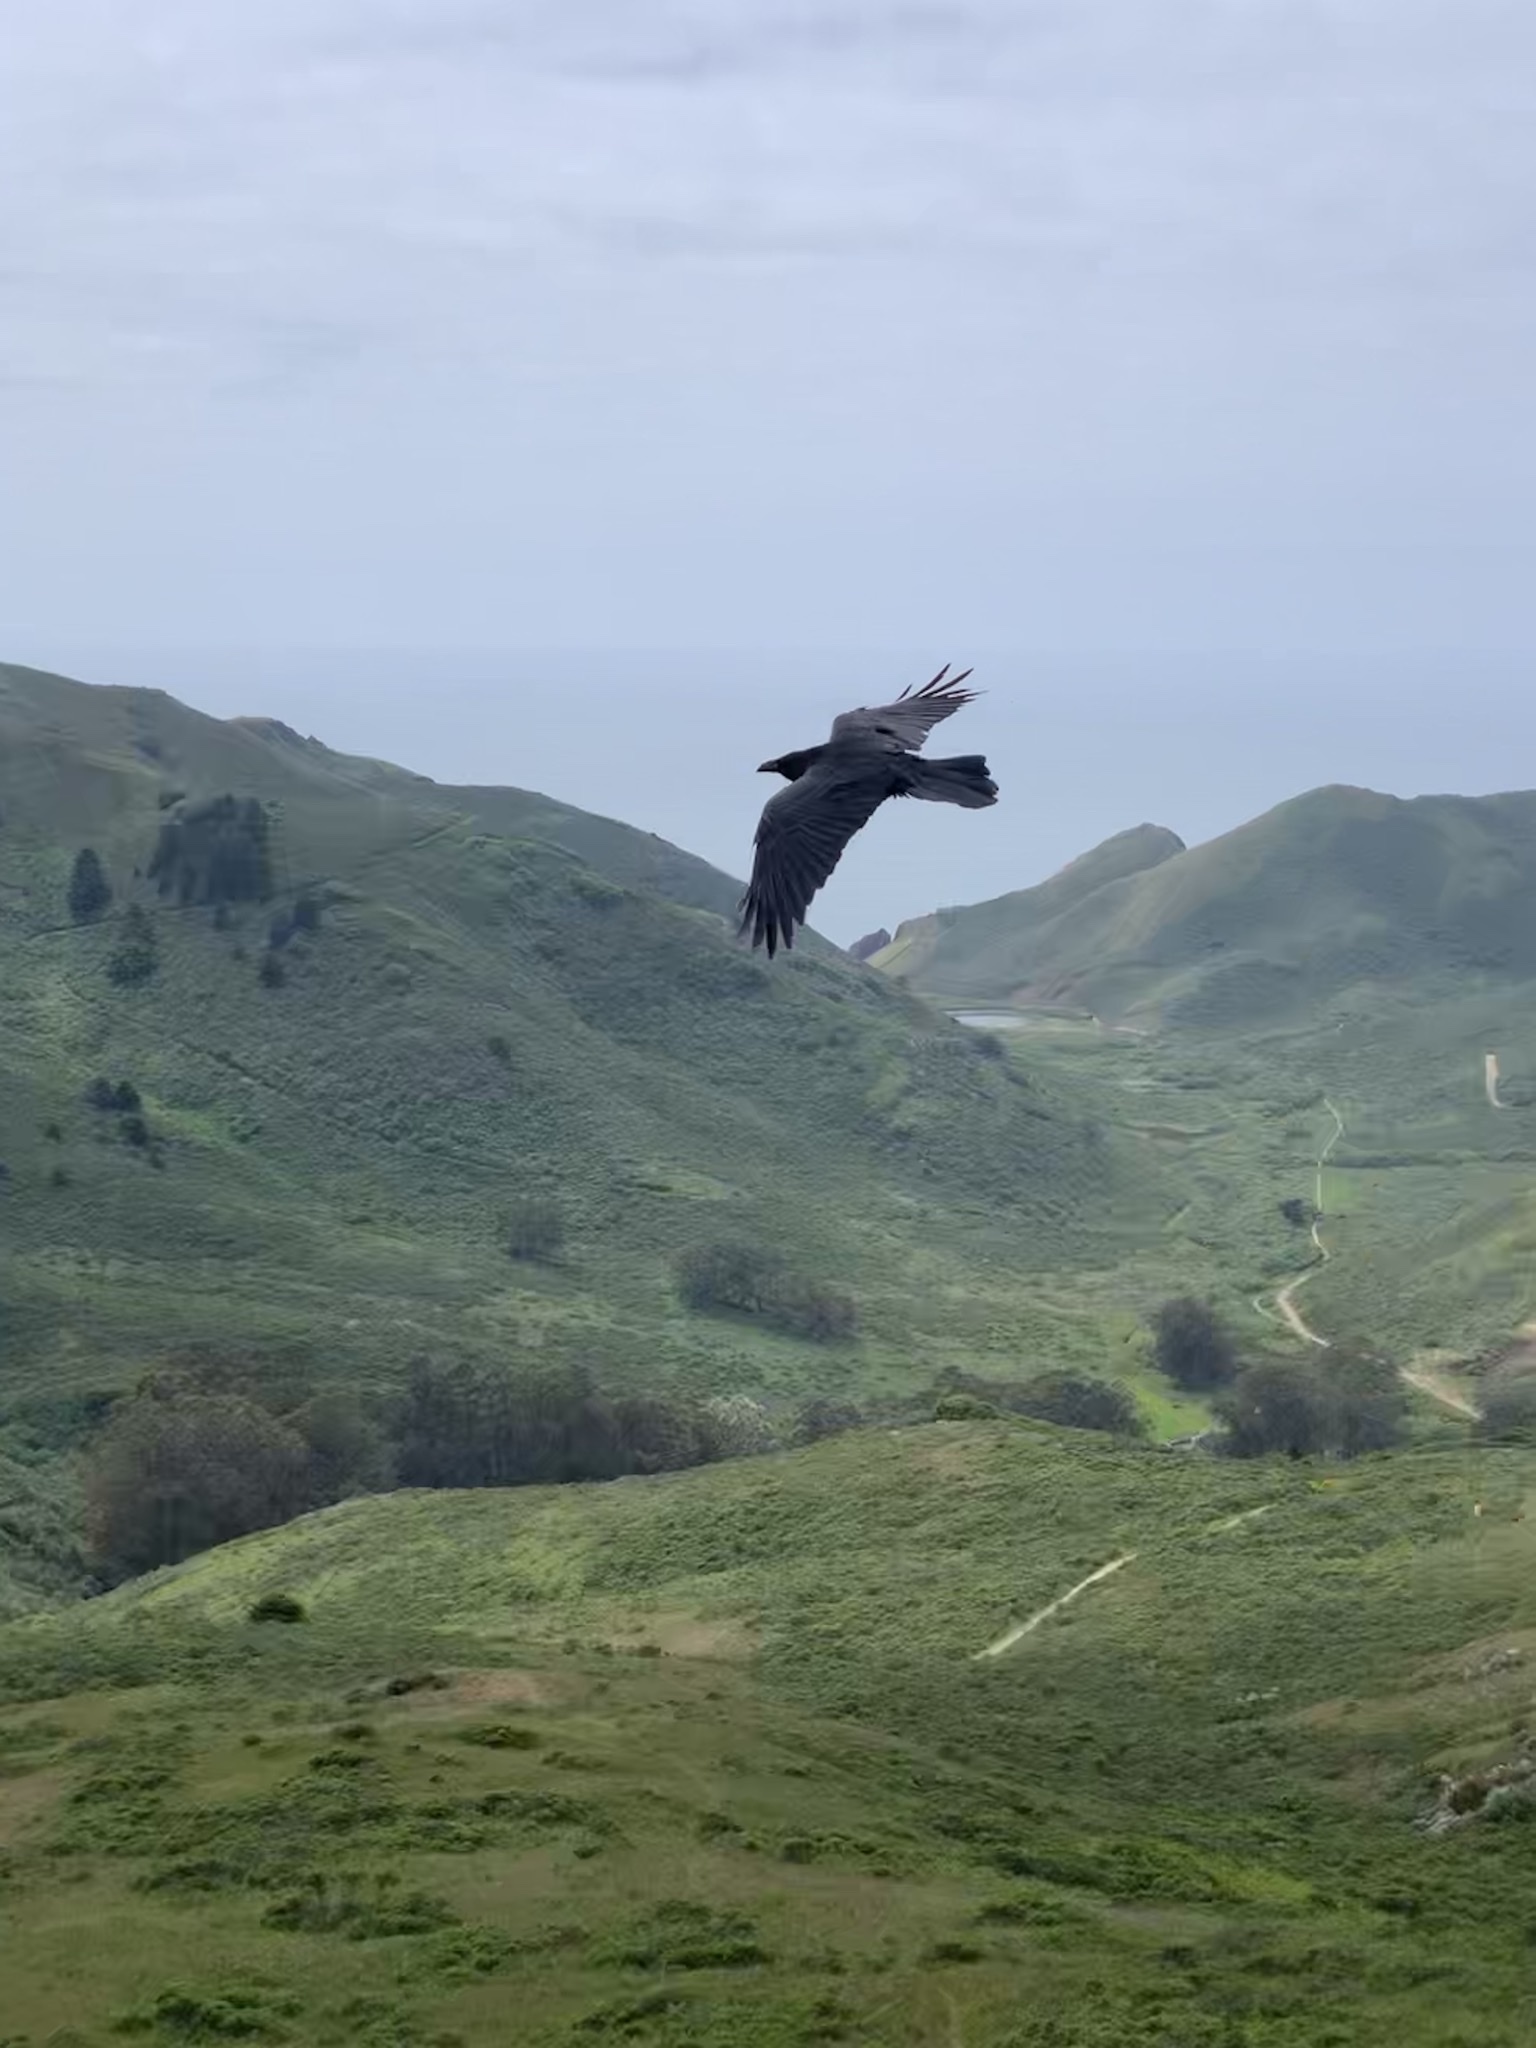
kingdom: Animalia
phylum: Chordata
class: Aves
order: Passeriformes
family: Corvidae
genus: Corvus
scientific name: Corvus corax
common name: Common raven
